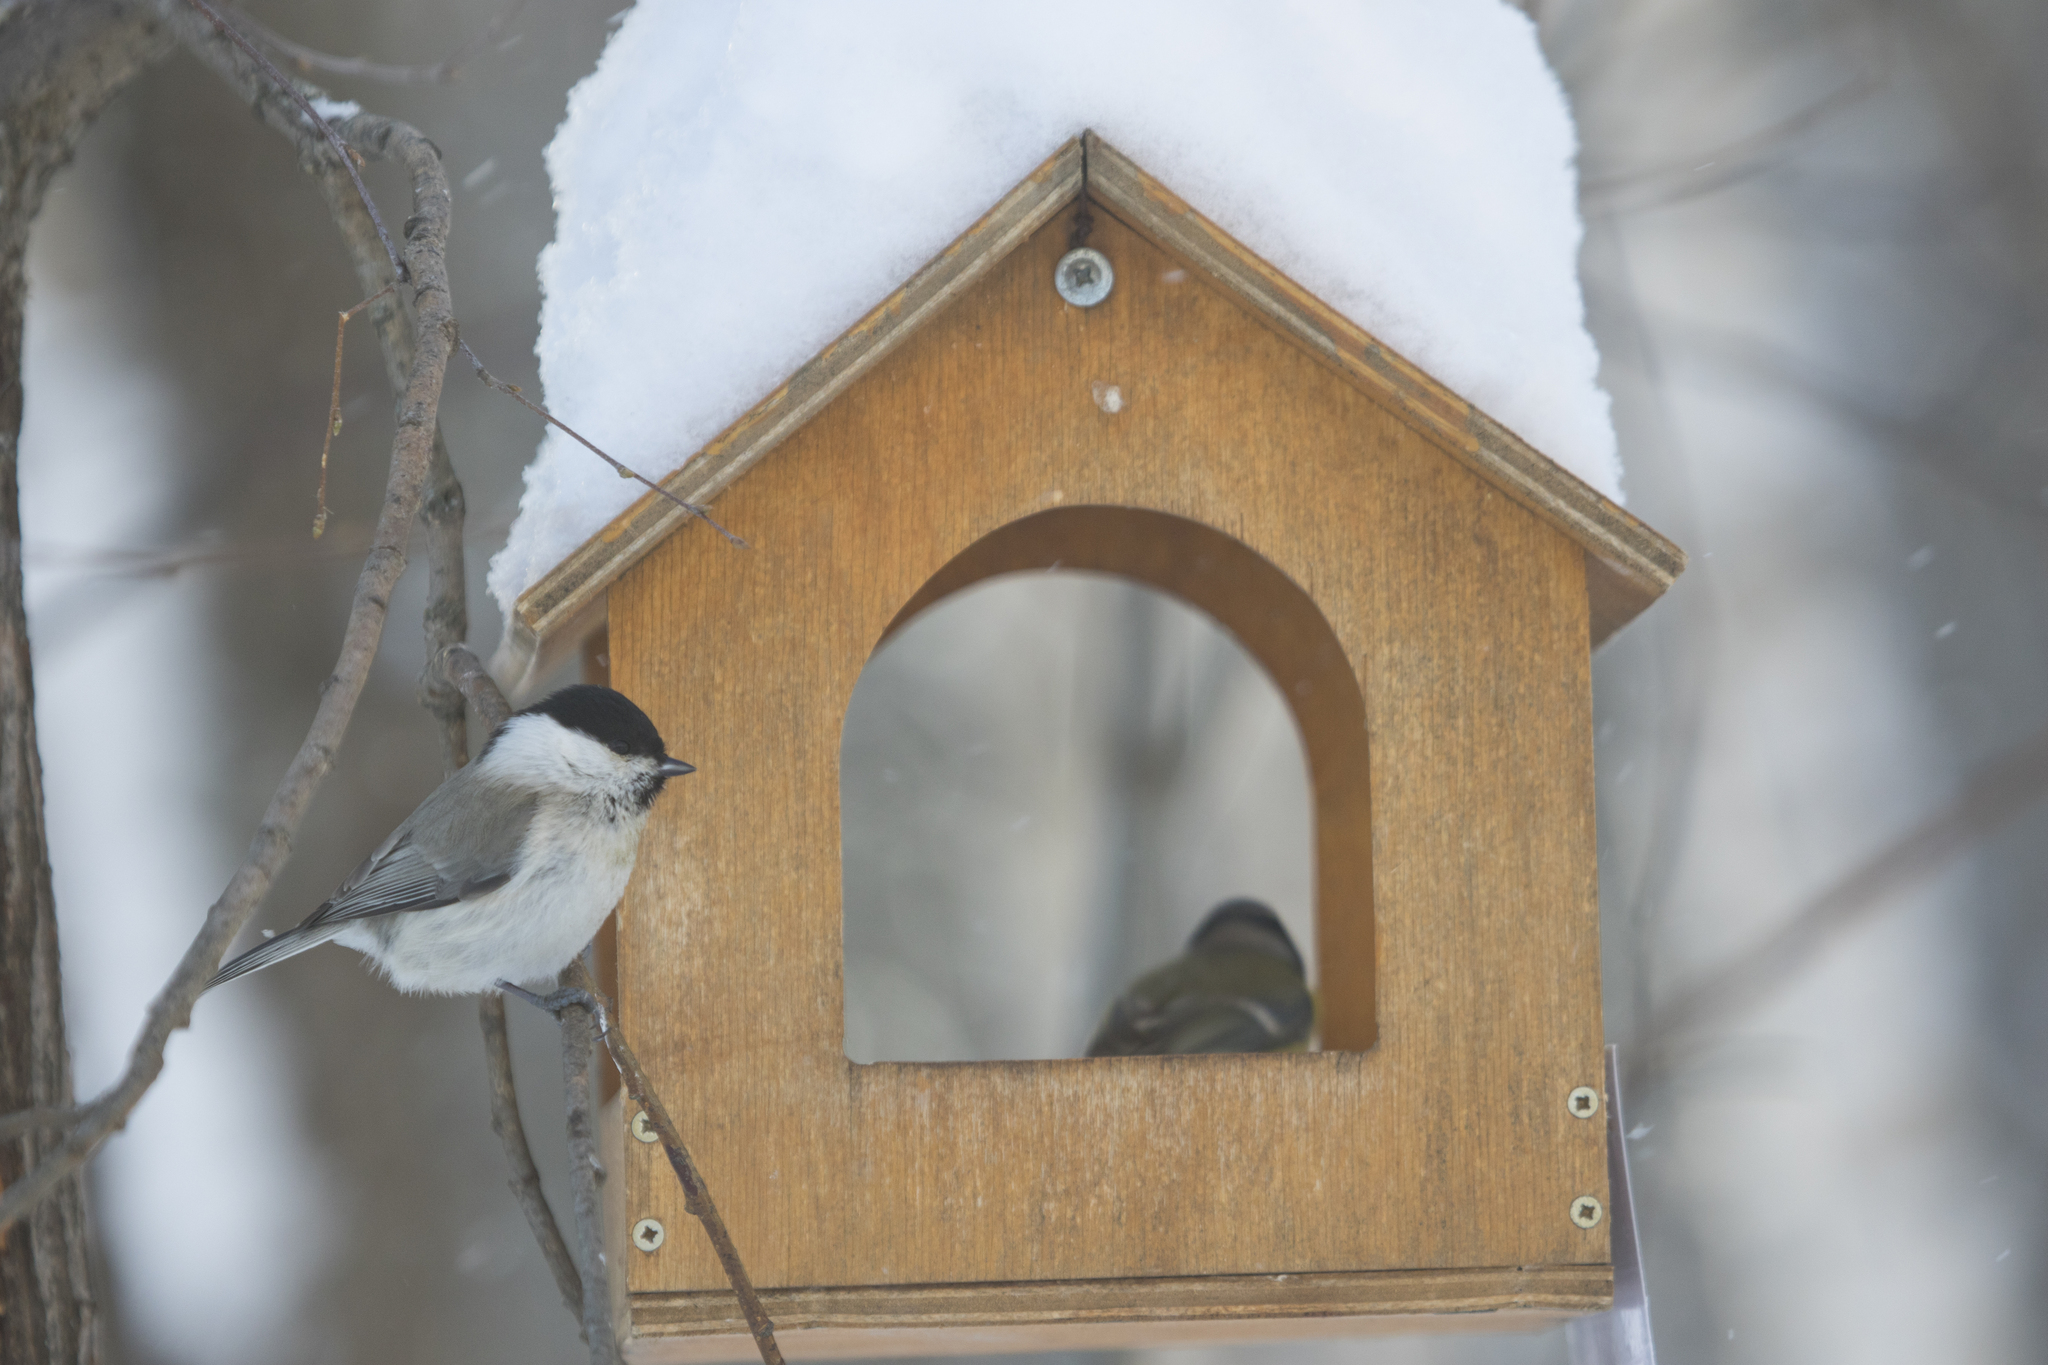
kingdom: Animalia
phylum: Chordata
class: Aves
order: Passeriformes
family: Paridae
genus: Poecile
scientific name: Poecile montanus
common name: Willow tit
